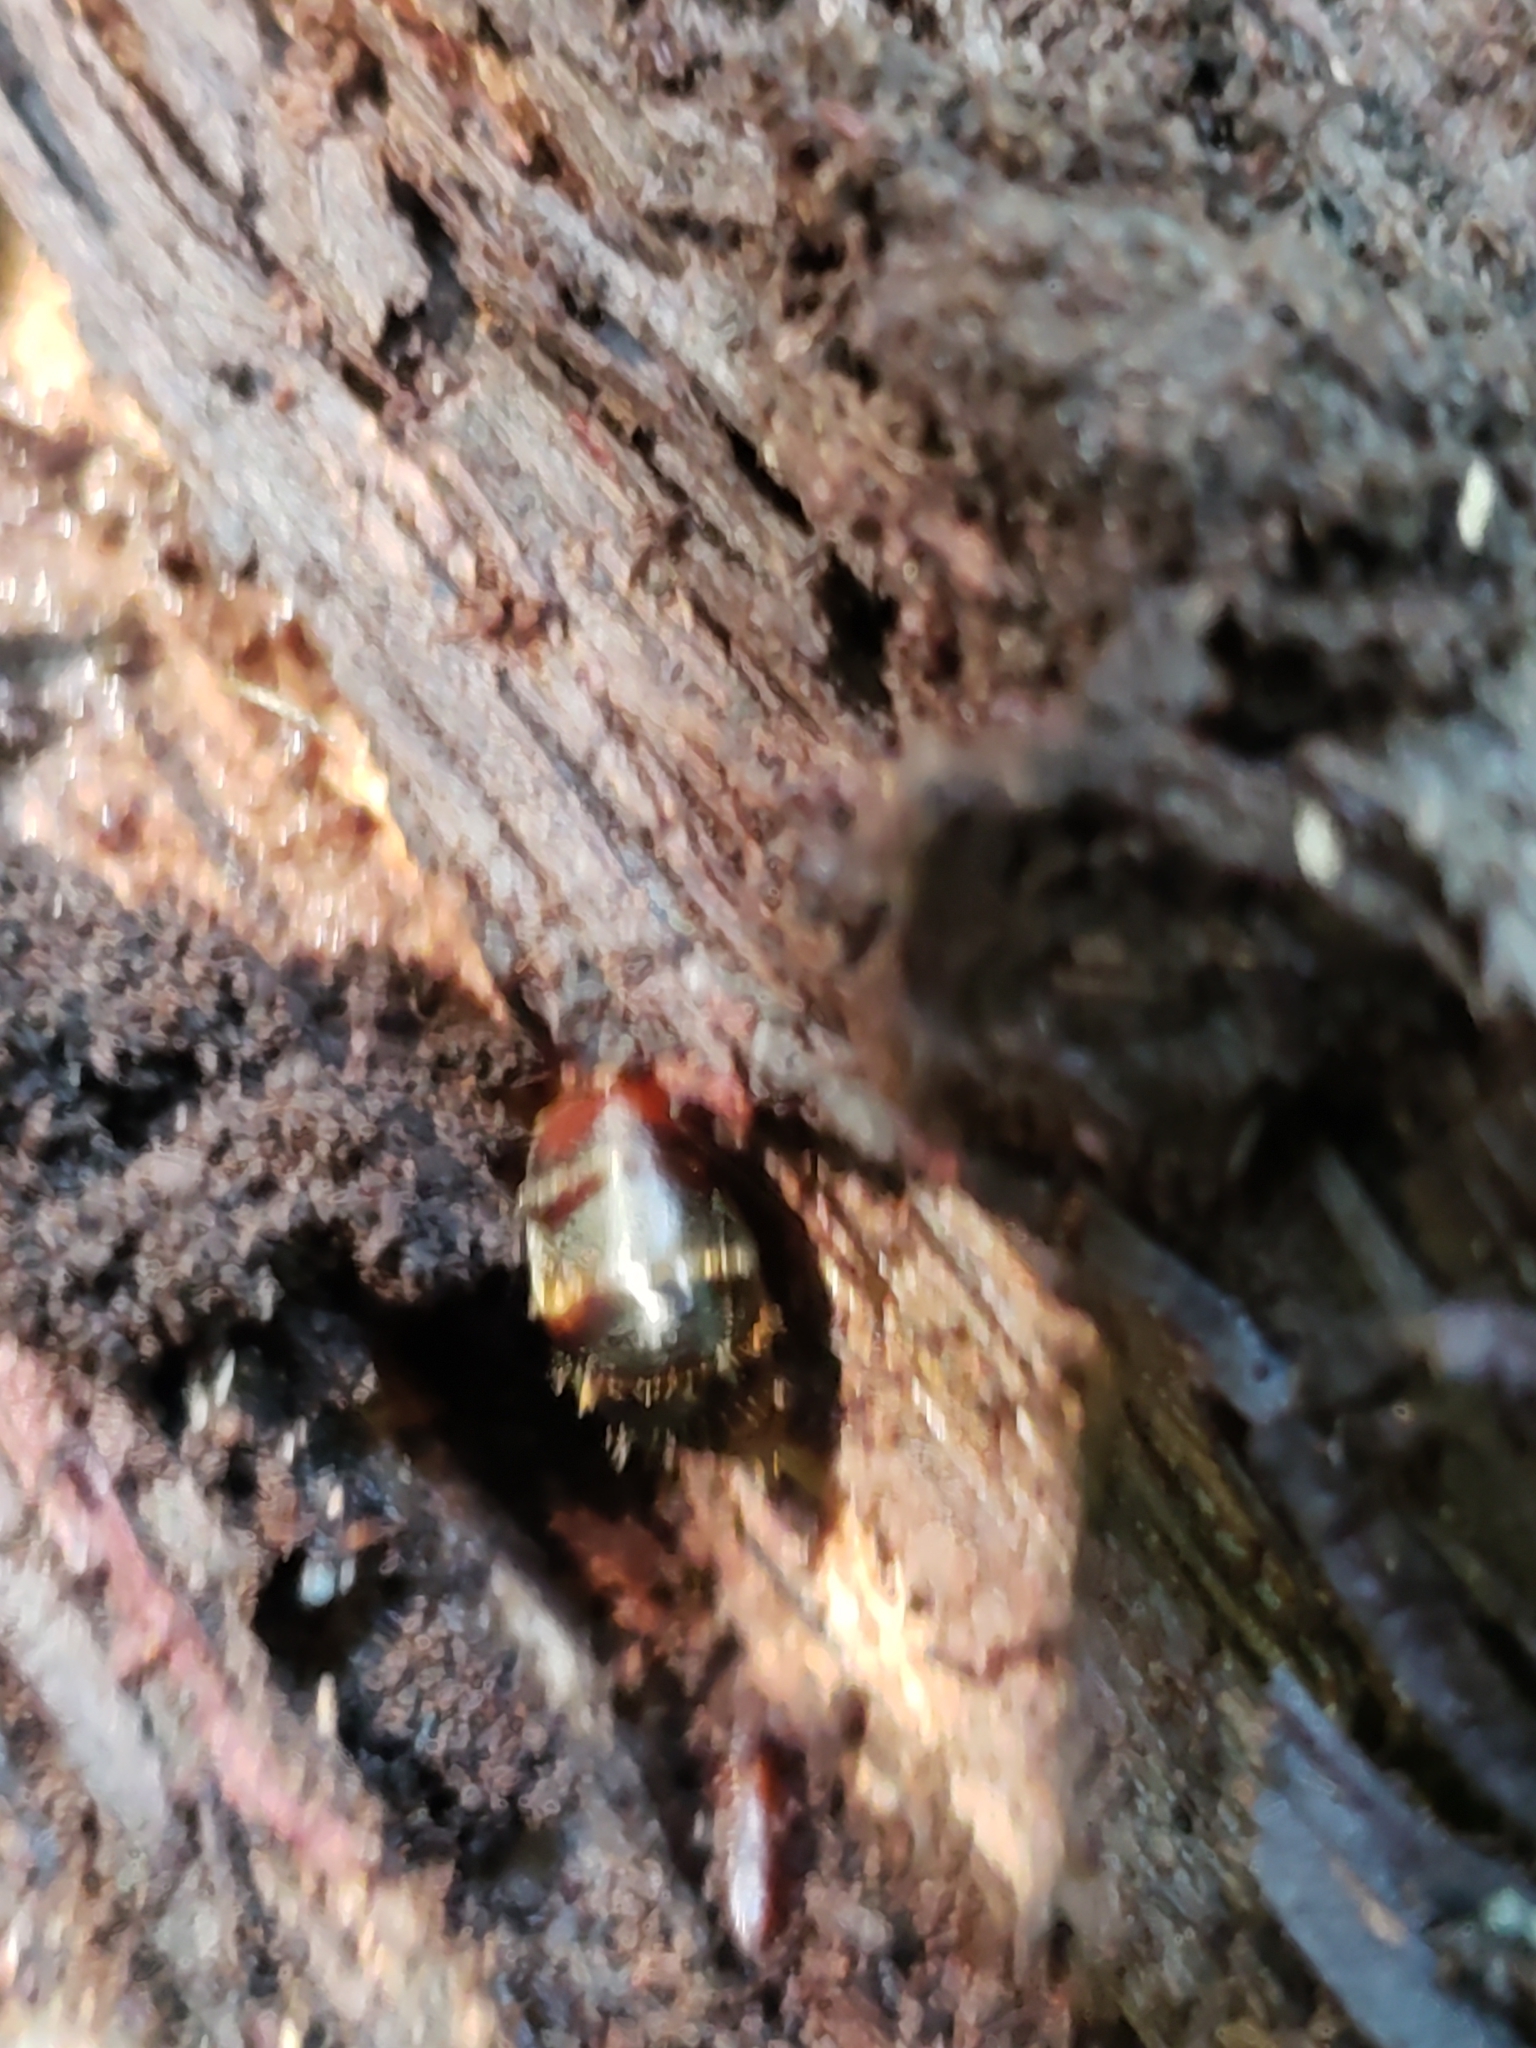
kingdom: Animalia
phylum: Arthropoda
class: Insecta
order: Hymenoptera
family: Formicidae
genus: Camponotus
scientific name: Camponotus chromaiodes
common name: Red carpenter ant
